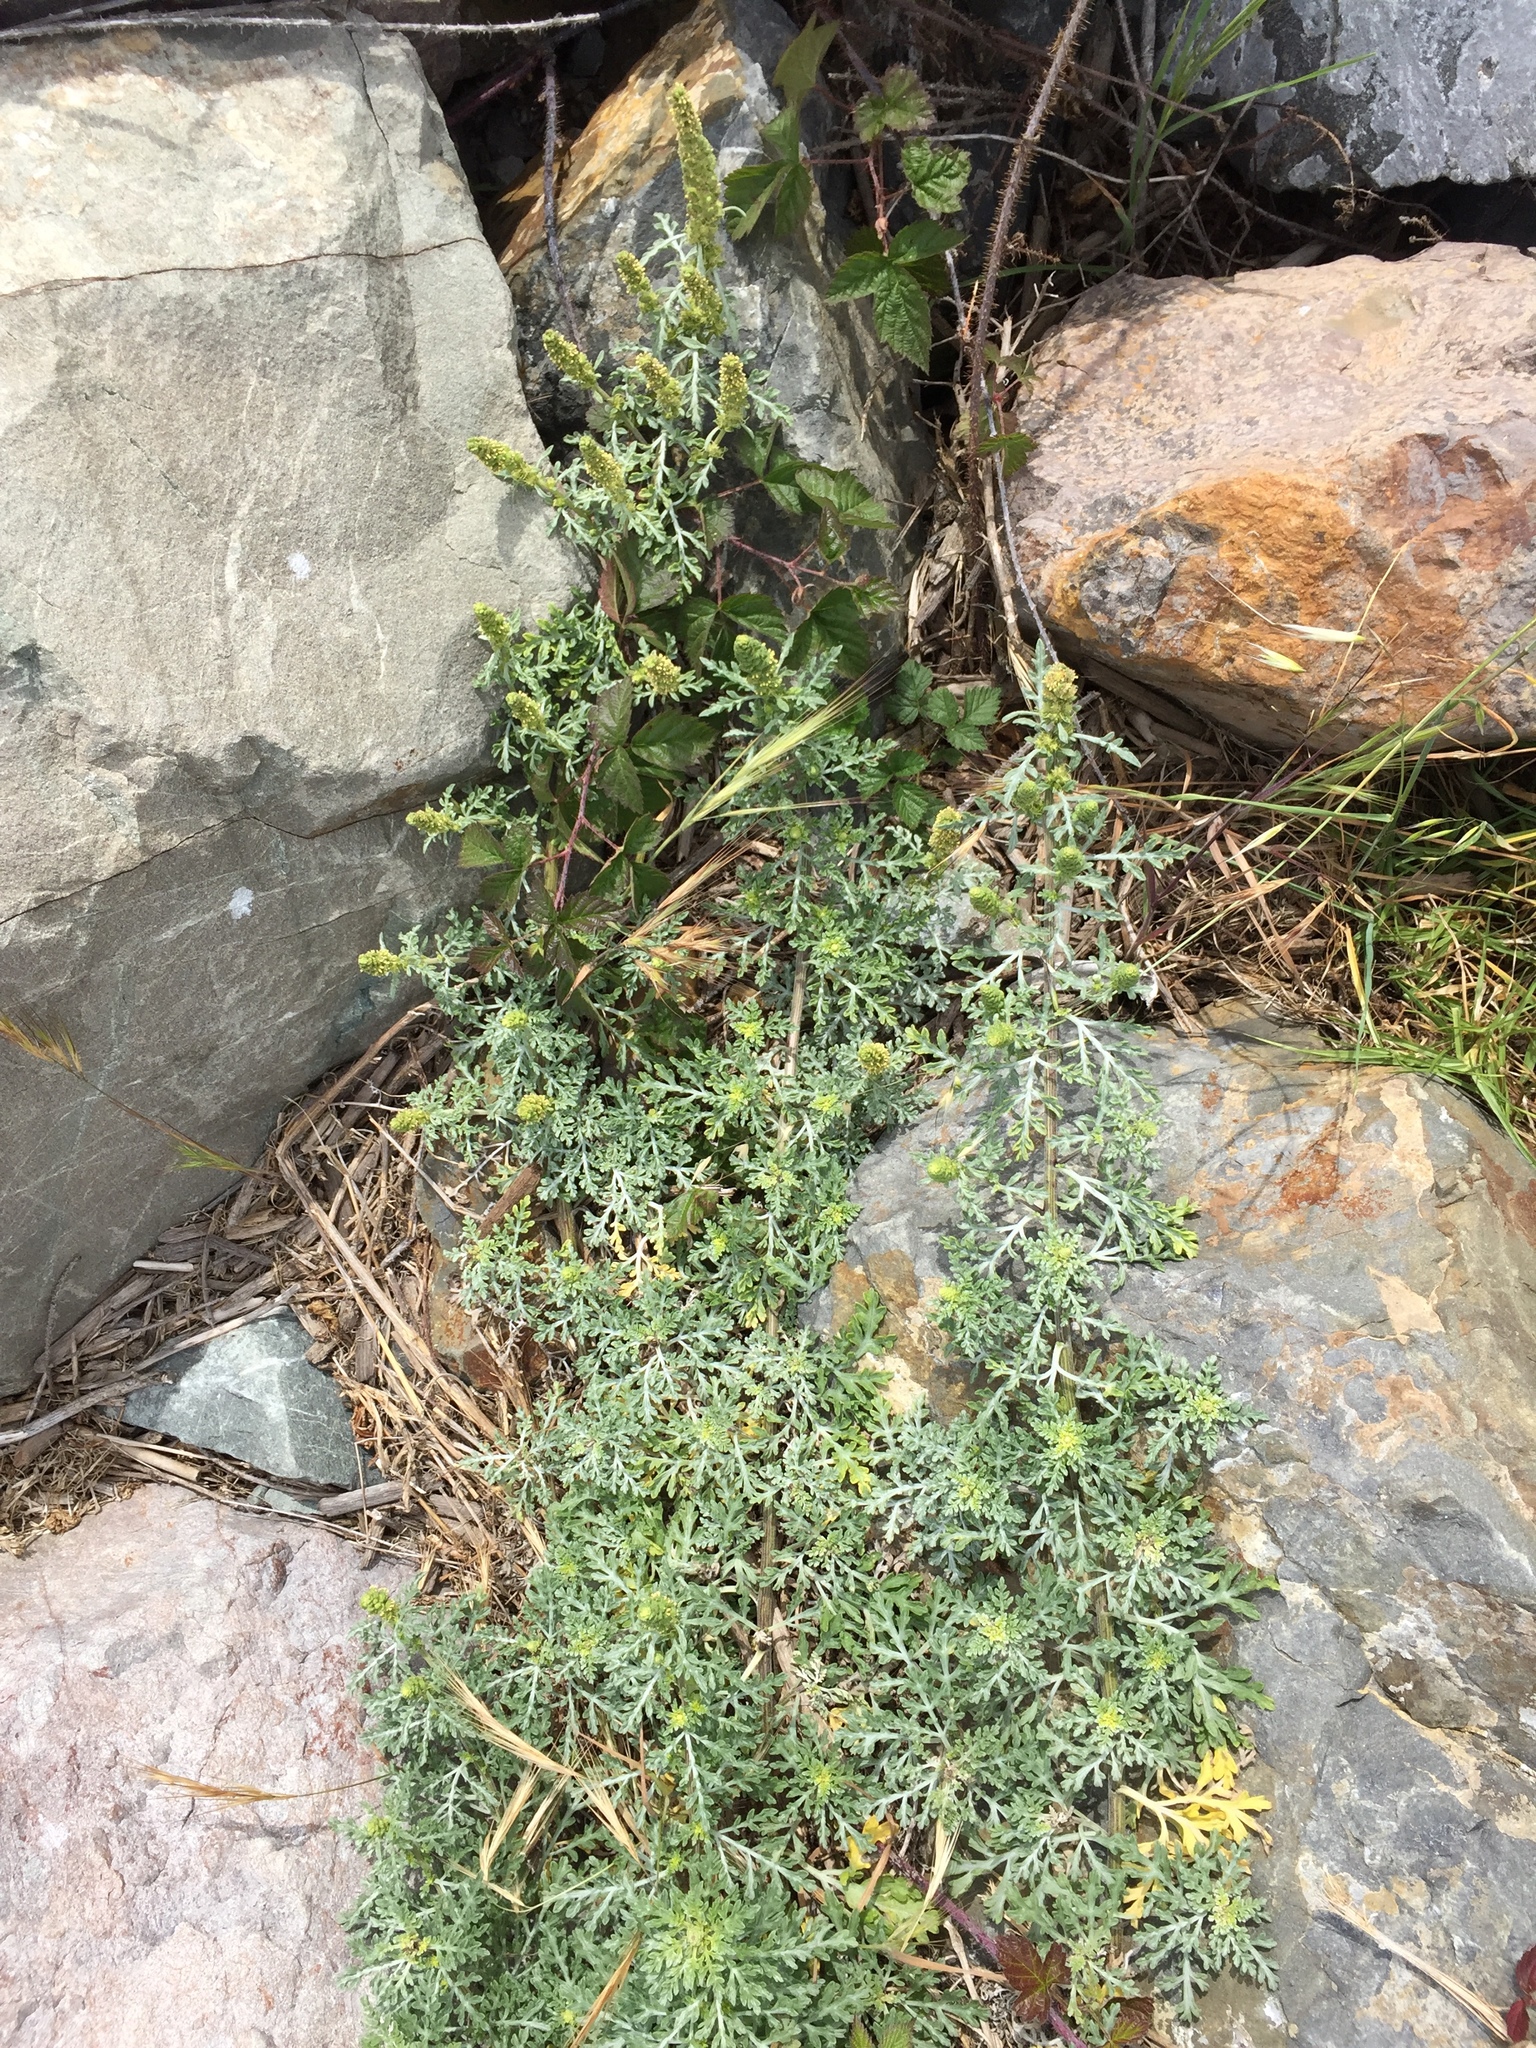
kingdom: Plantae
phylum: Tracheophyta
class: Magnoliopsida
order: Asterales
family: Asteraceae
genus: Ambrosia
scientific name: Ambrosia chamissonis
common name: Beachbur
